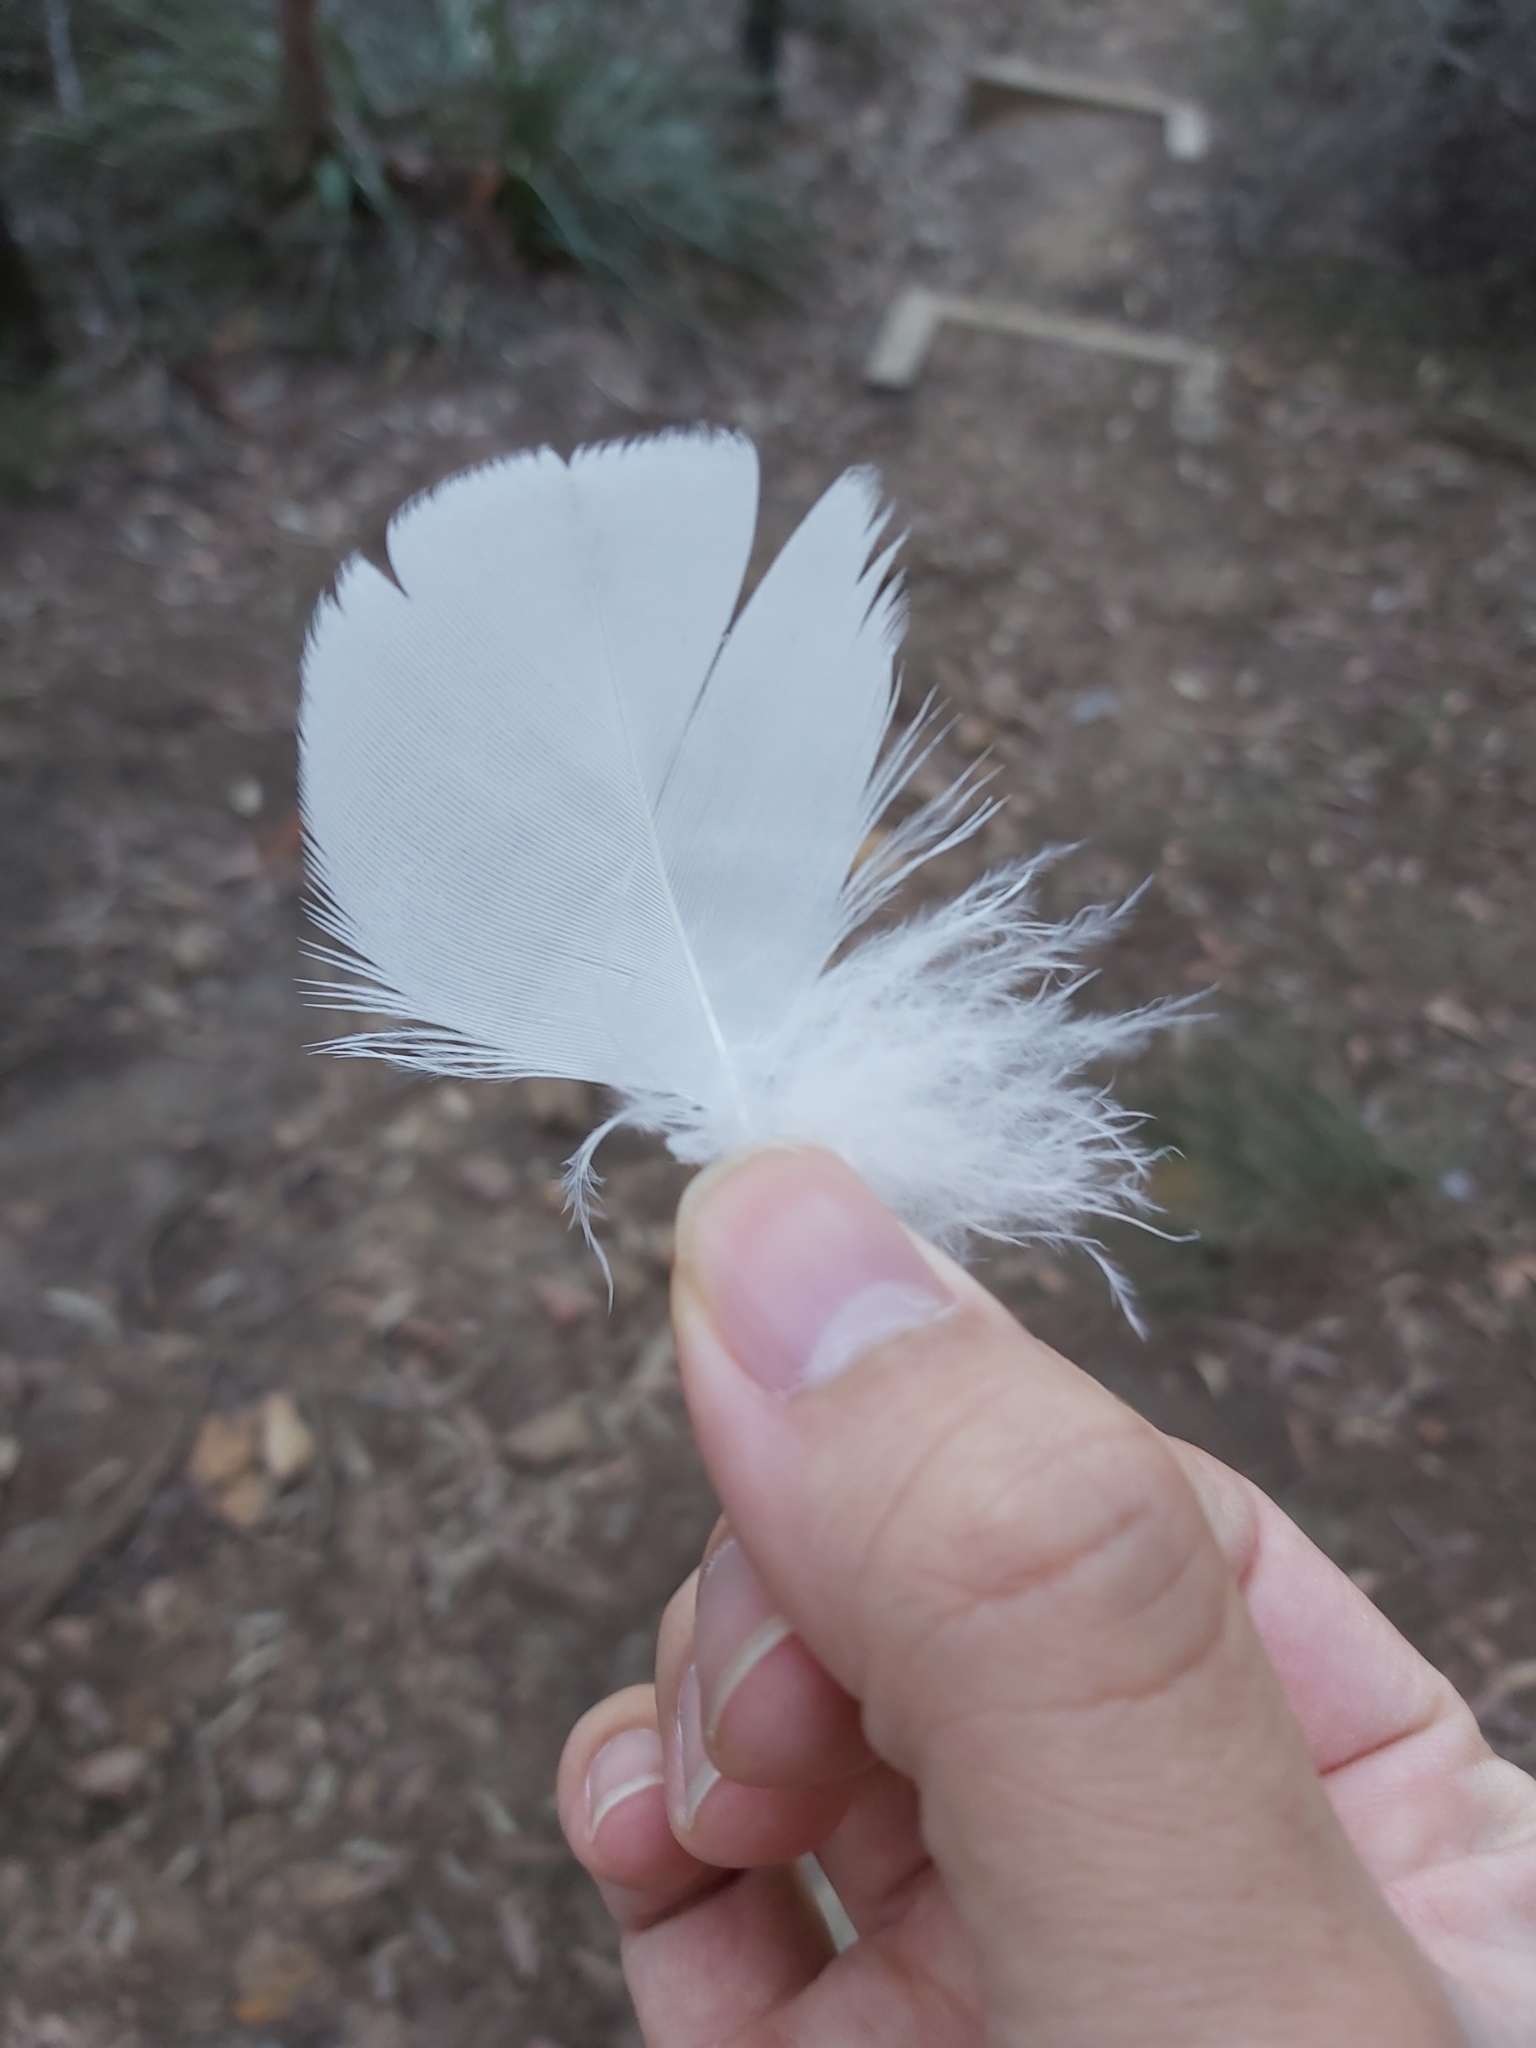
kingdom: Animalia
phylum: Chordata
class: Aves
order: Psittaciformes
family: Psittacidae
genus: Cacatua
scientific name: Cacatua galerita
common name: Sulphur-crested cockatoo
